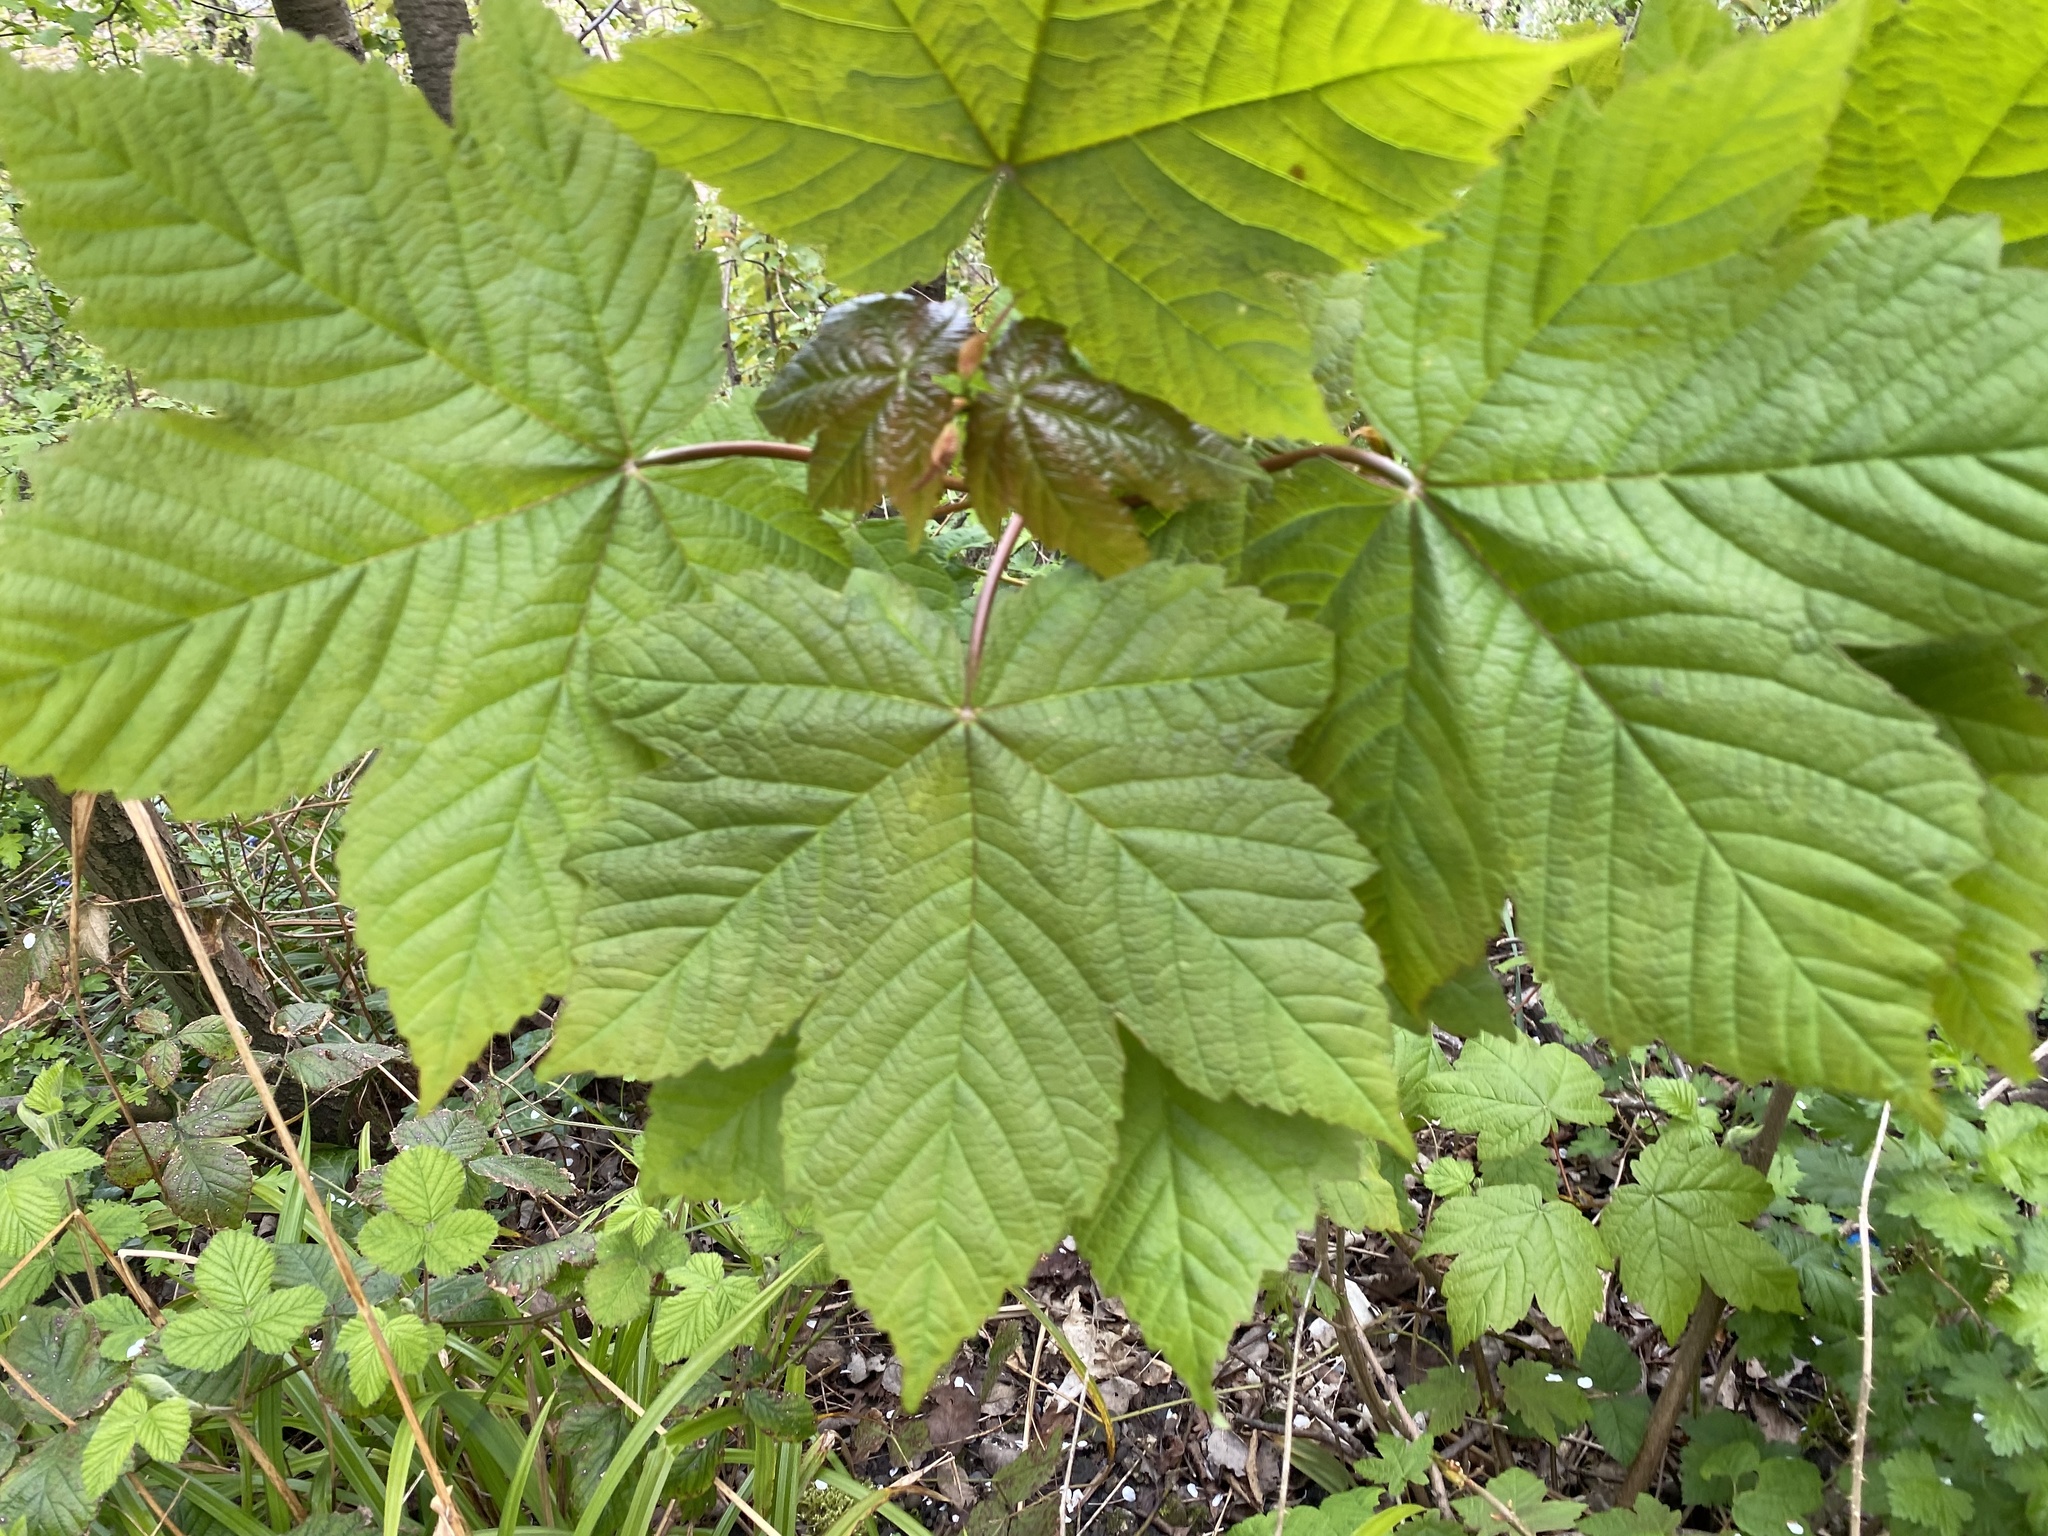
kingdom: Plantae
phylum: Tracheophyta
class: Magnoliopsida
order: Sapindales
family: Sapindaceae
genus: Acer
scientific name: Acer pseudoplatanus
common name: Sycamore
